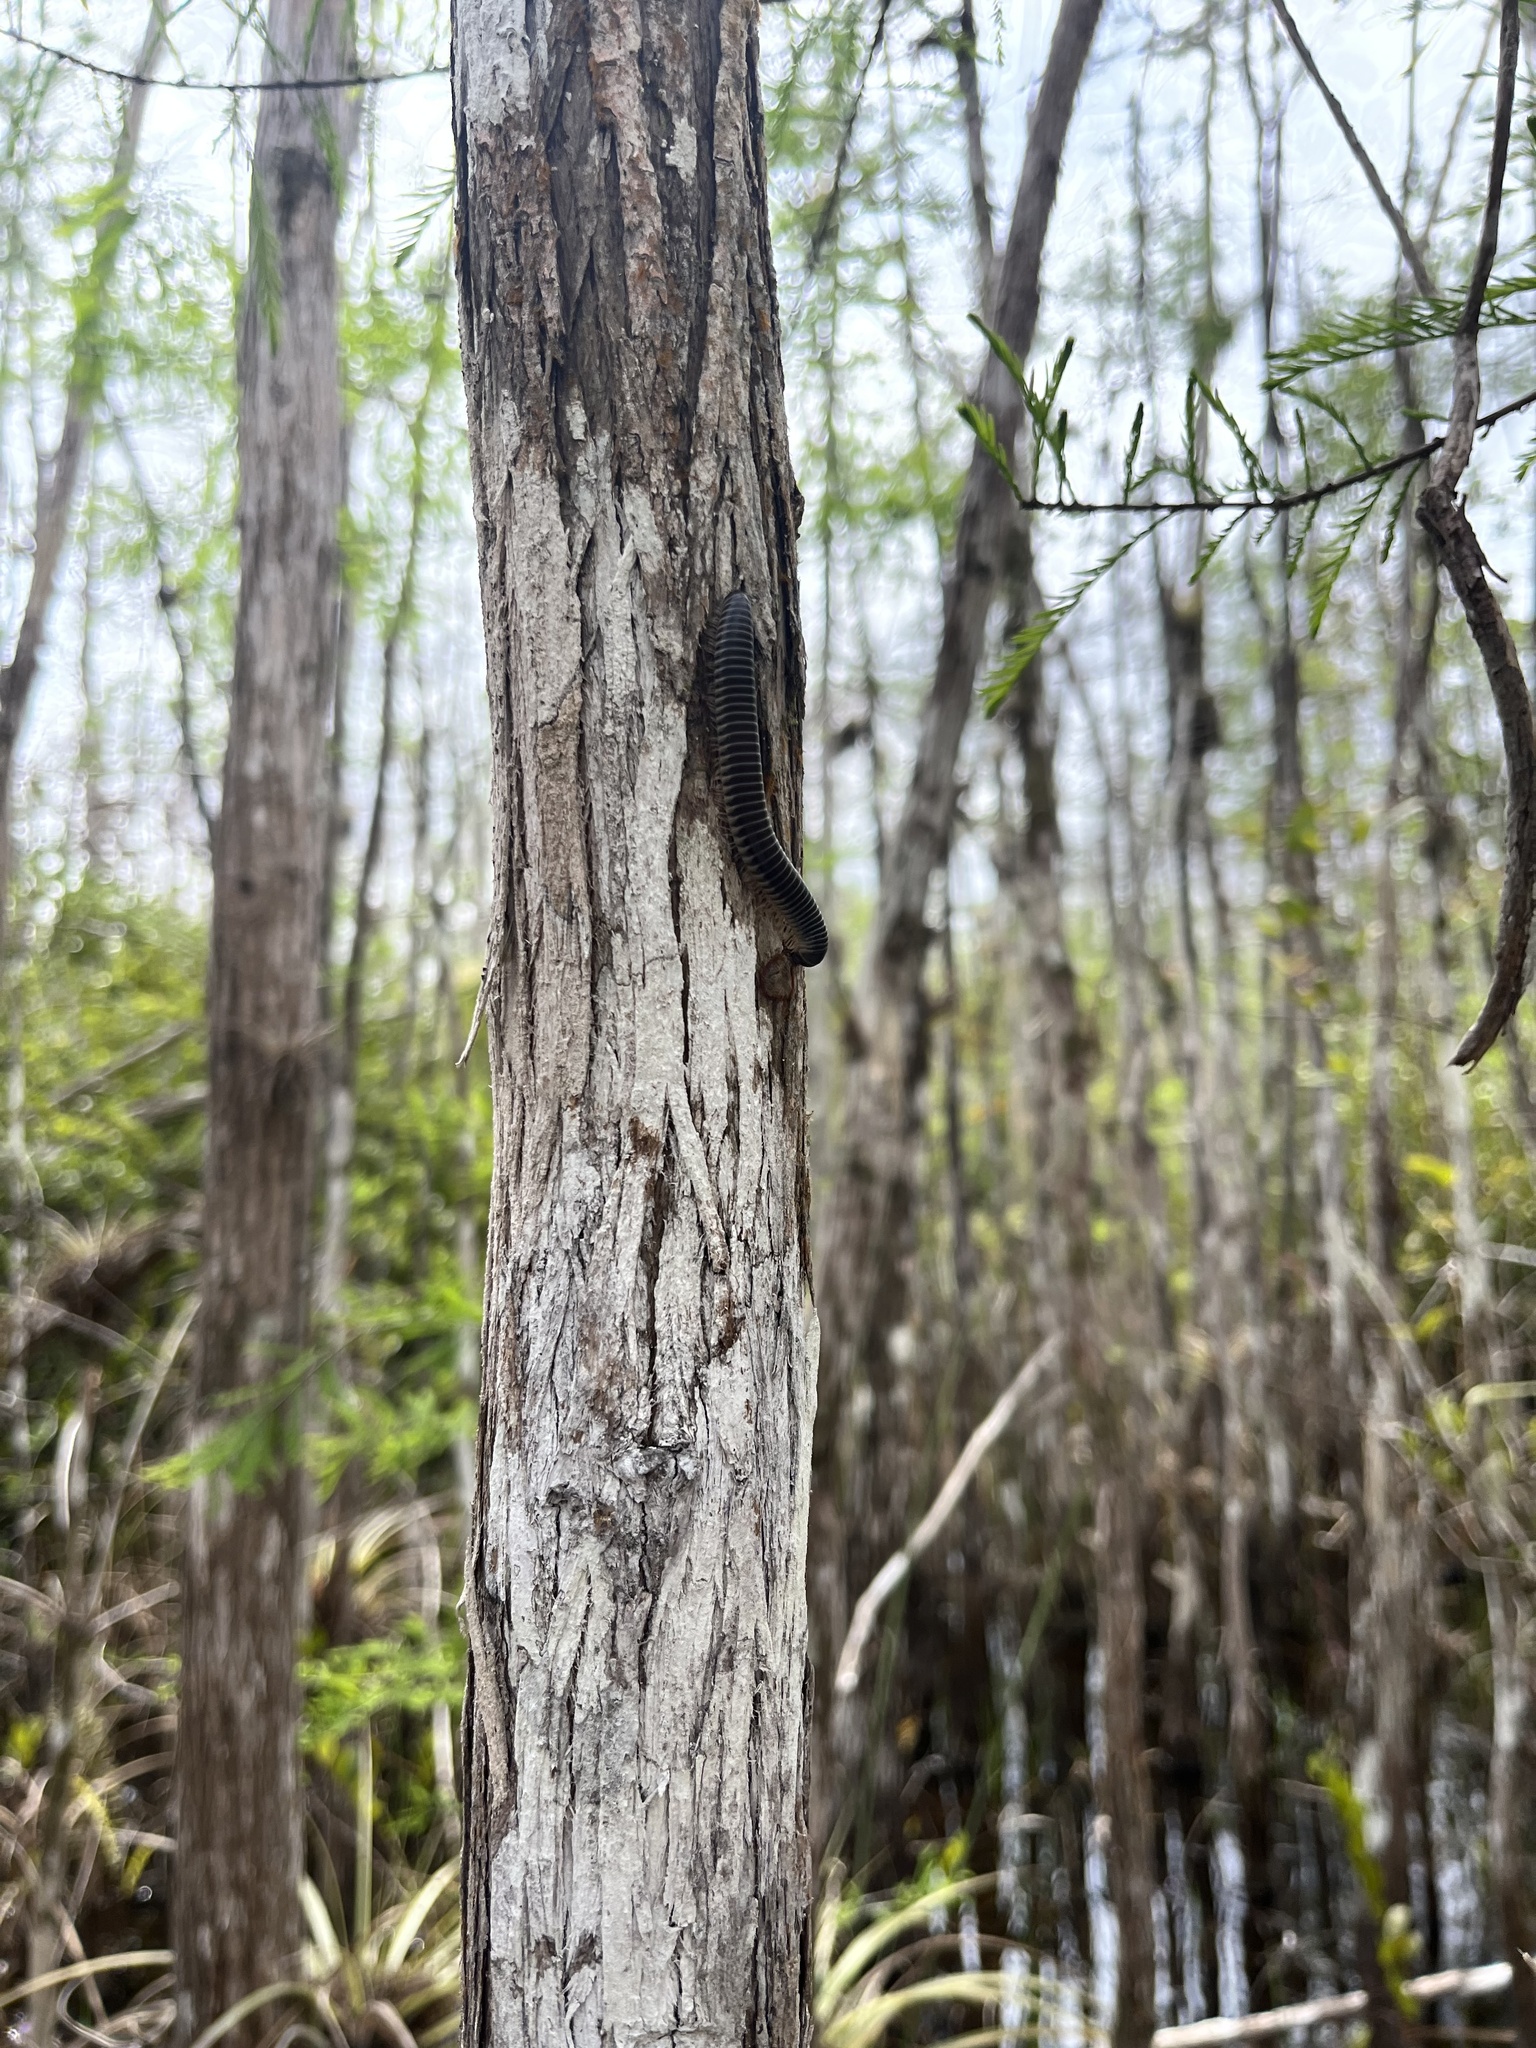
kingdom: Animalia
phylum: Arthropoda
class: Diplopoda
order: Spirobolida
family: Spirobolidae
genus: Chicobolus
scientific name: Chicobolus spinigerus
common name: Florida ivory millipede
